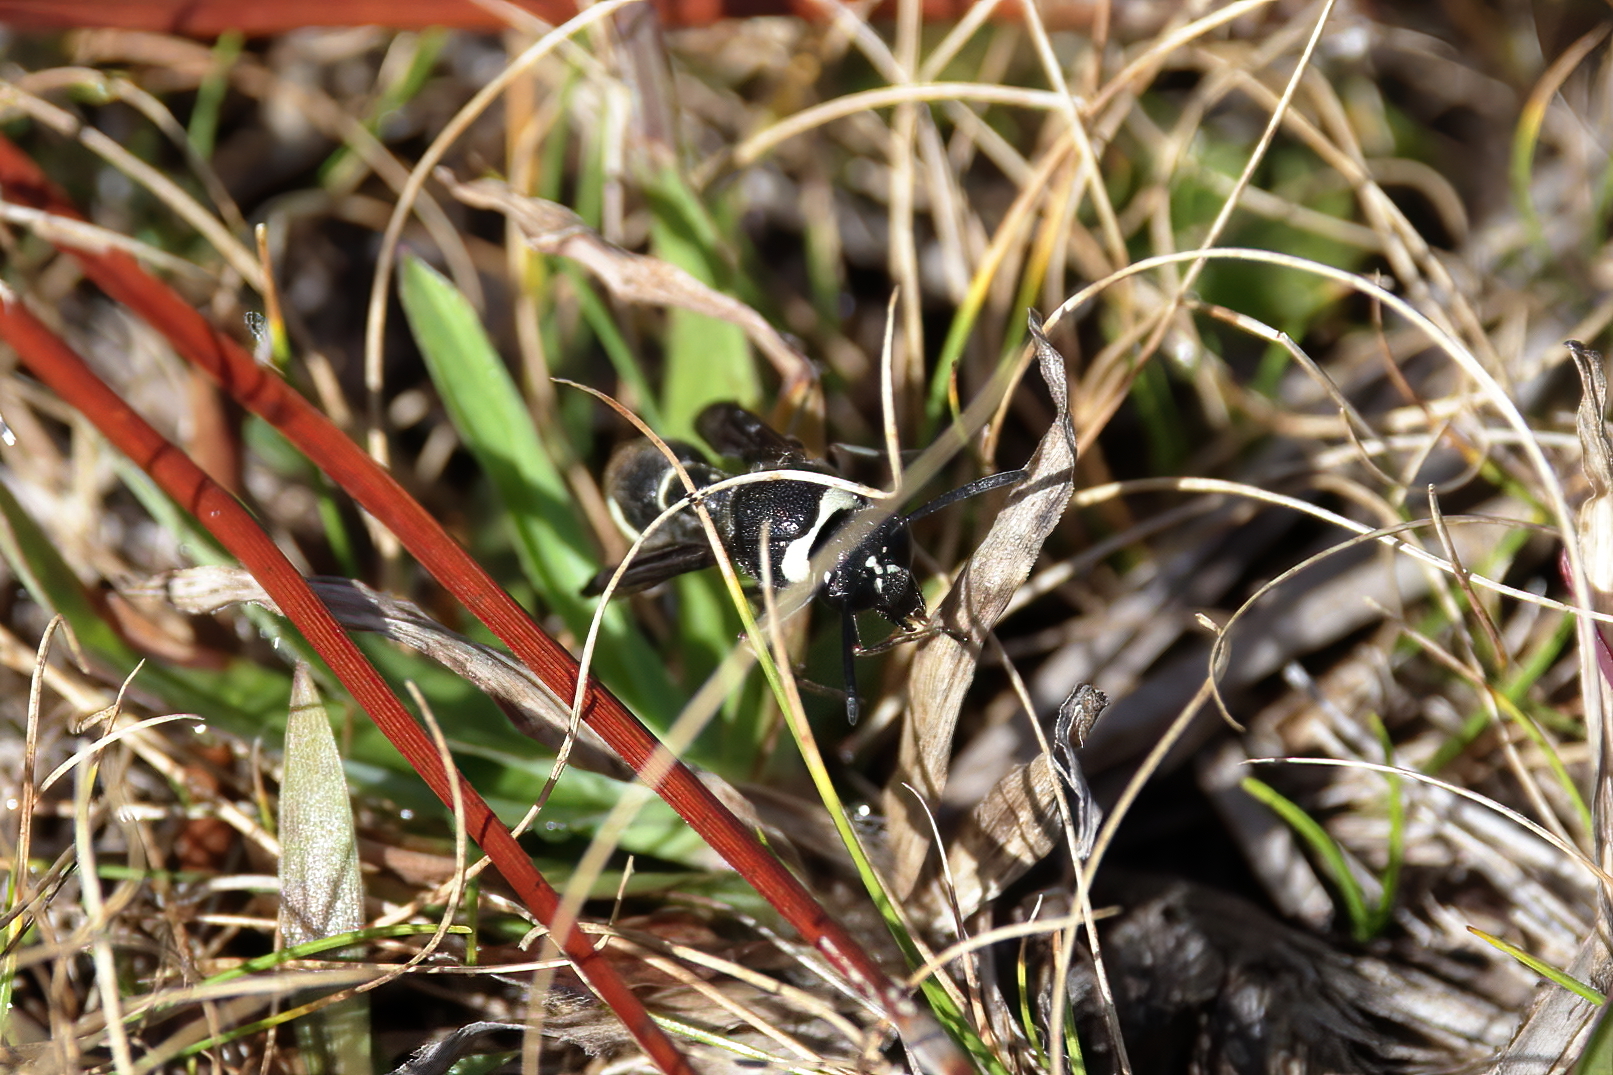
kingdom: Animalia
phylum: Arthropoda
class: Insecta
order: Hymenoptera
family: Vespidae
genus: Eumenes
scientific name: Eumenes fraternus
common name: Fraternal potter wasp
